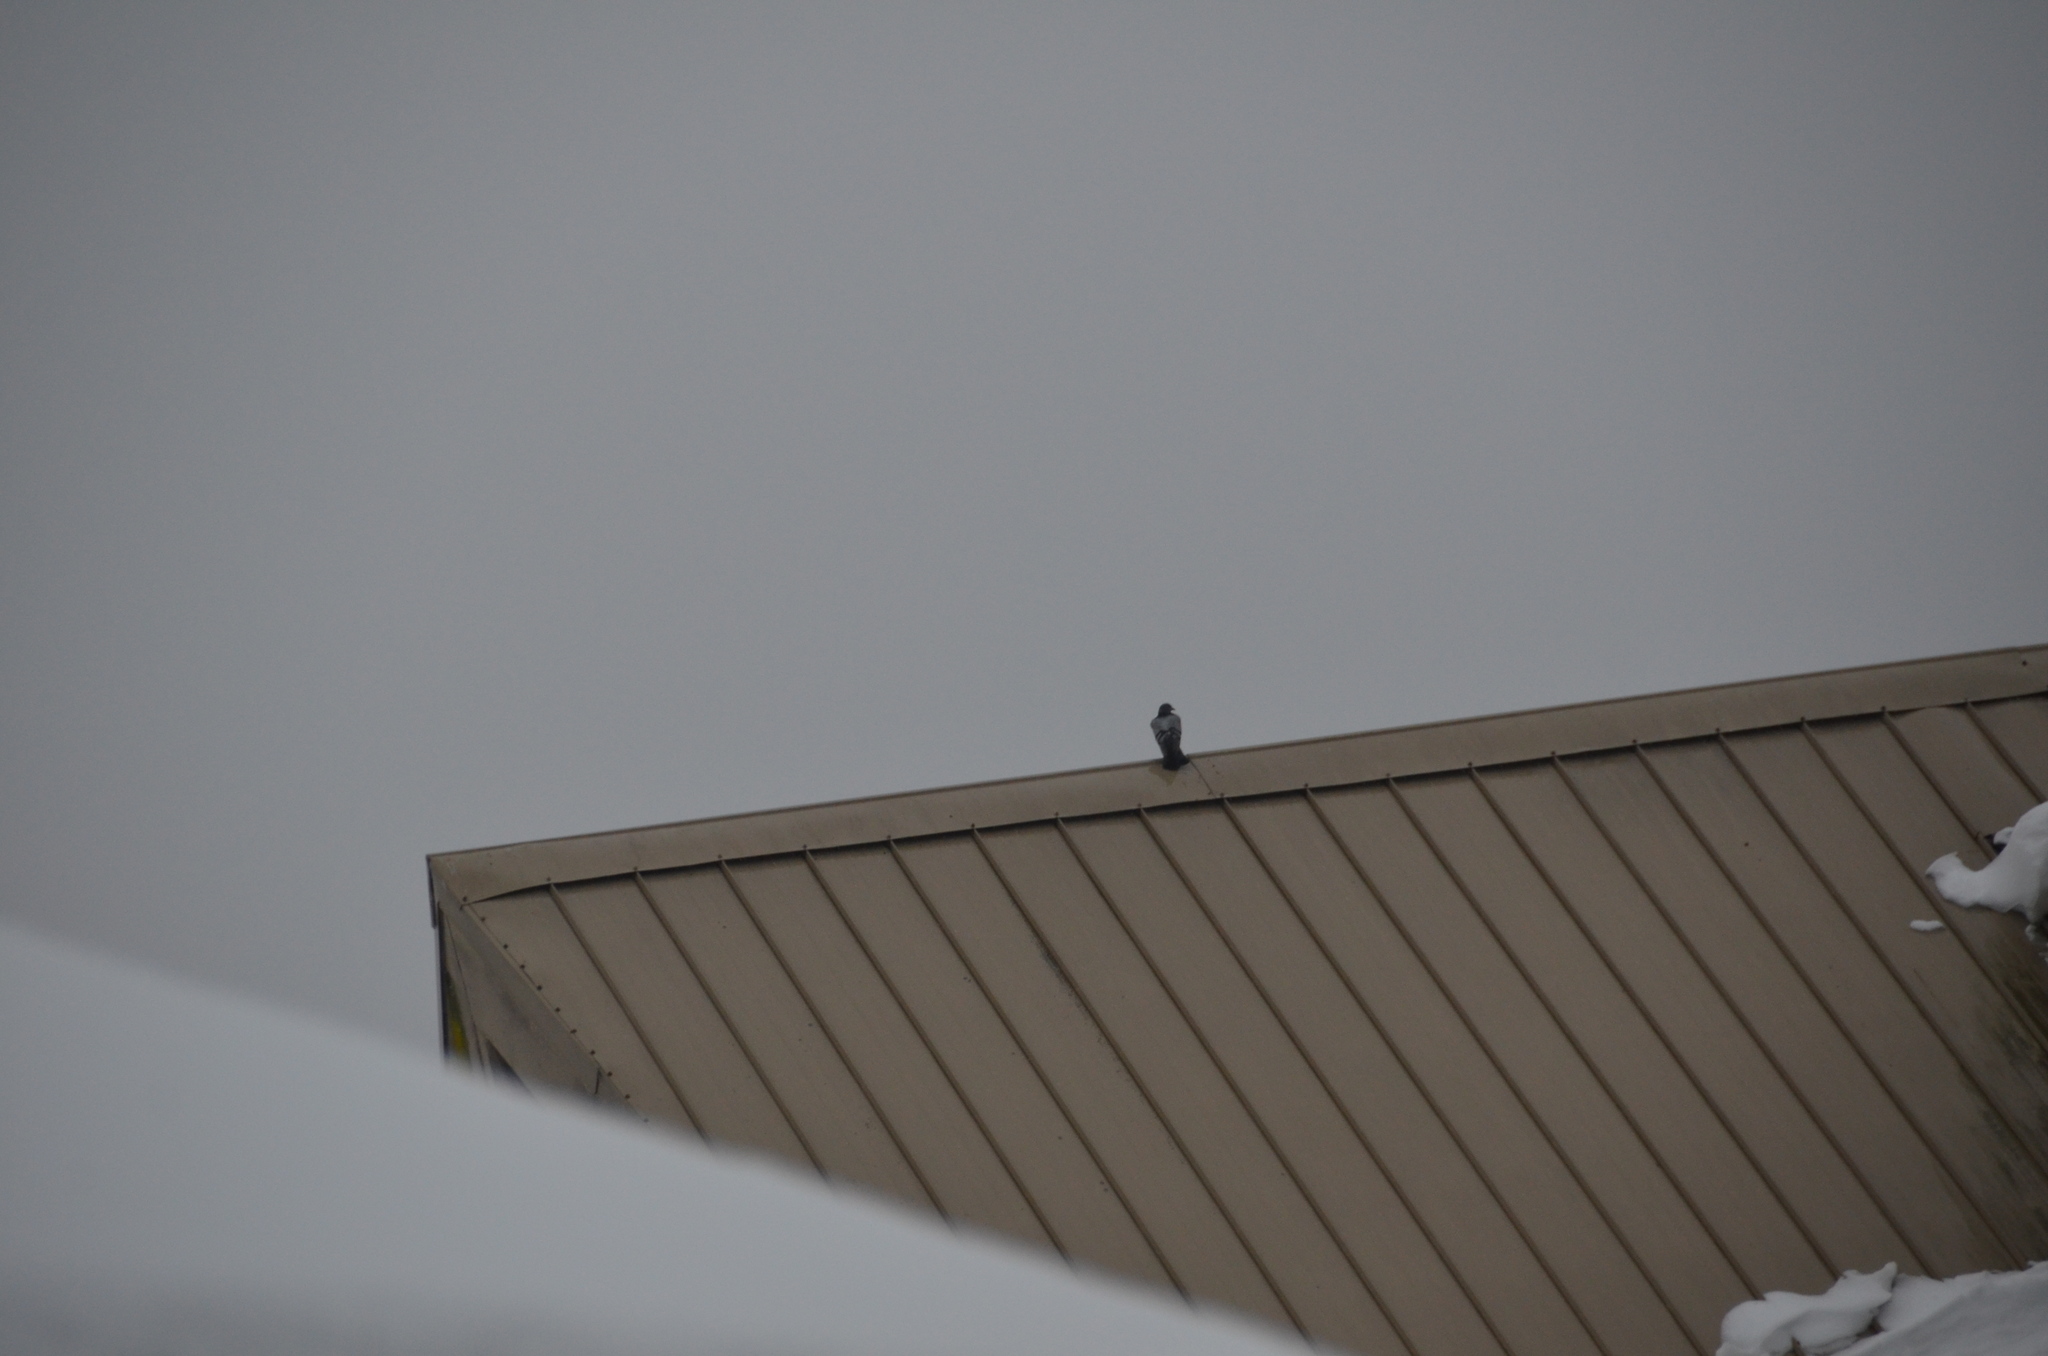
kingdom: Animalia
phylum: Chordata
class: Aves
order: Columbiformes
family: Columbidae
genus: Columba
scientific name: Columba livia
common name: Rock pigeon
